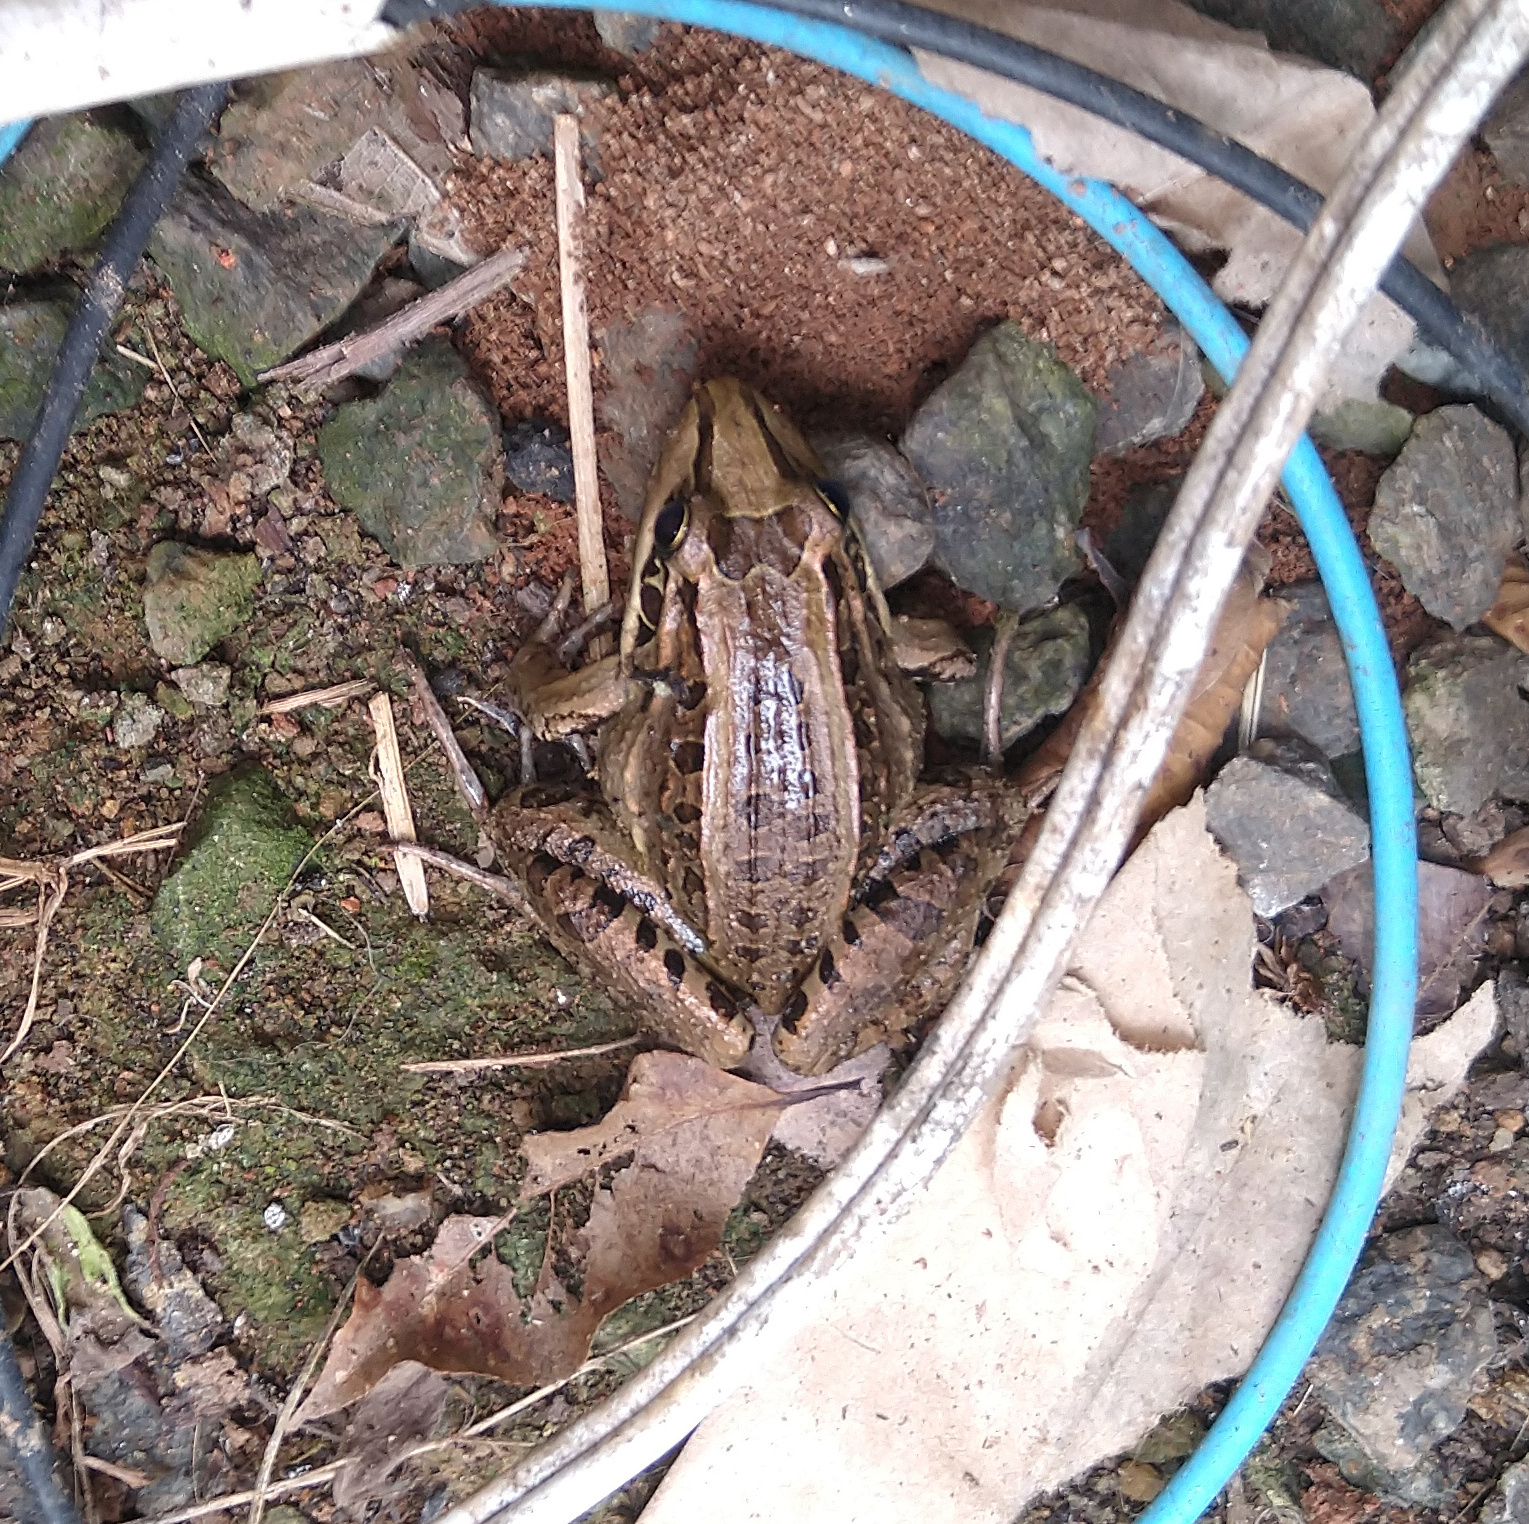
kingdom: Animalia
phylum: Chordata
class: Amphibia
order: Anura
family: Leptodactylidae
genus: Leptodactylus
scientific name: Leptodactylus latrans
